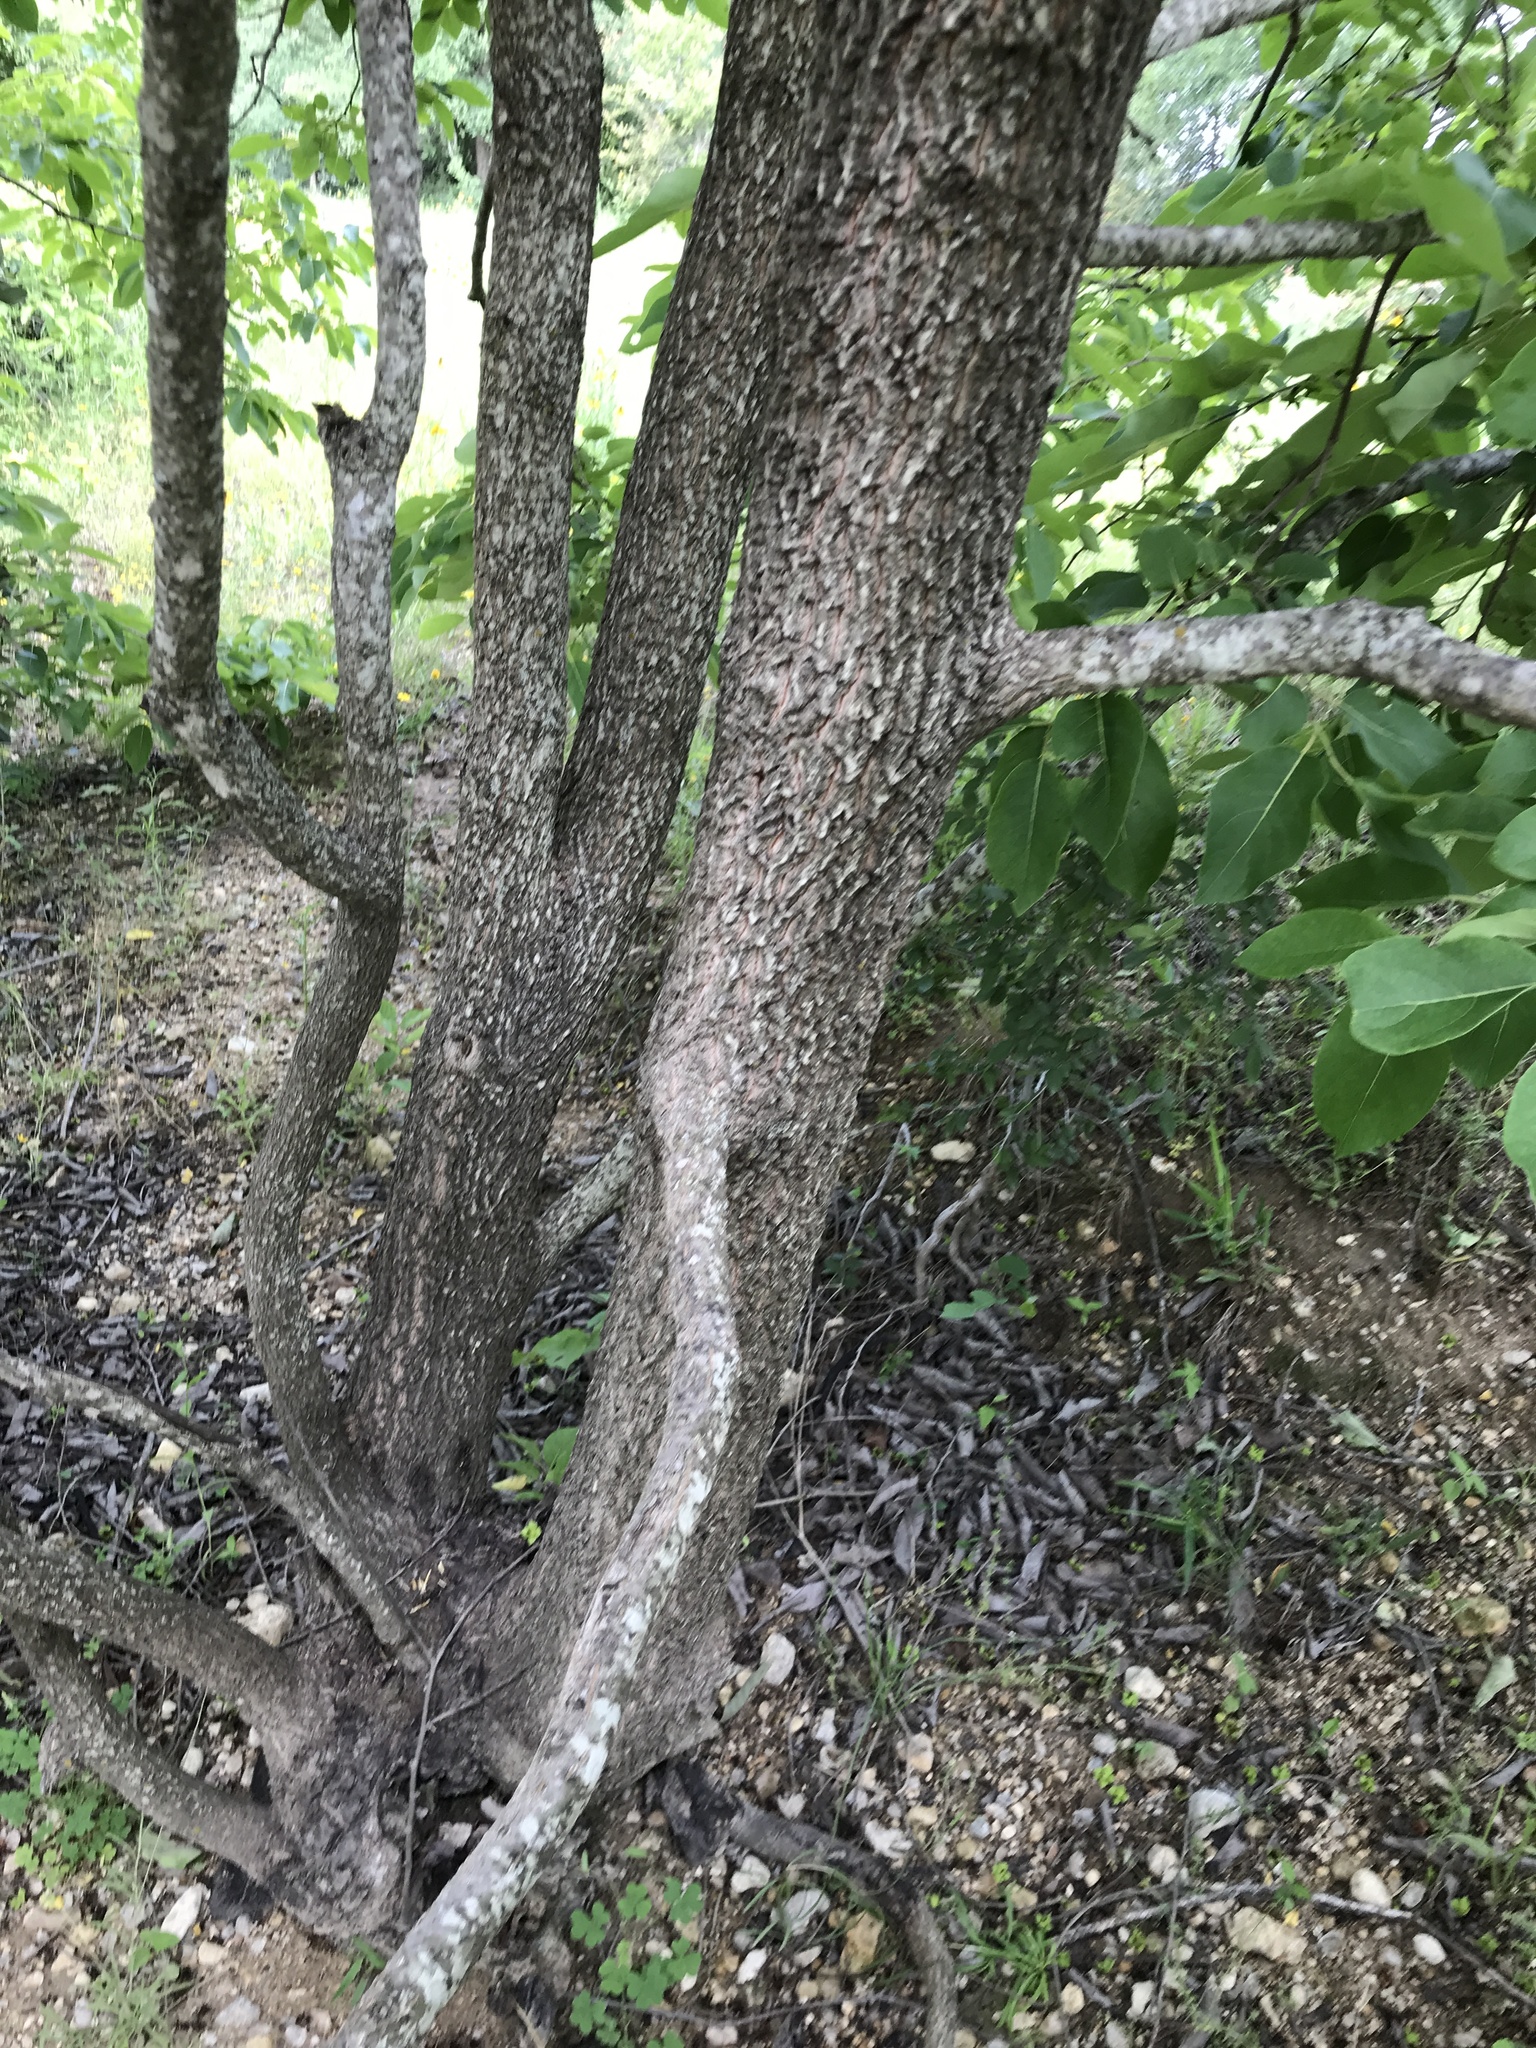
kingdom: Plantae
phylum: Tracheophyta
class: Magnoliopsida
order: Ericales
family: Ebenaceae
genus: Diospyros
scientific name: Diospyros virginiana
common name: Persimmon
